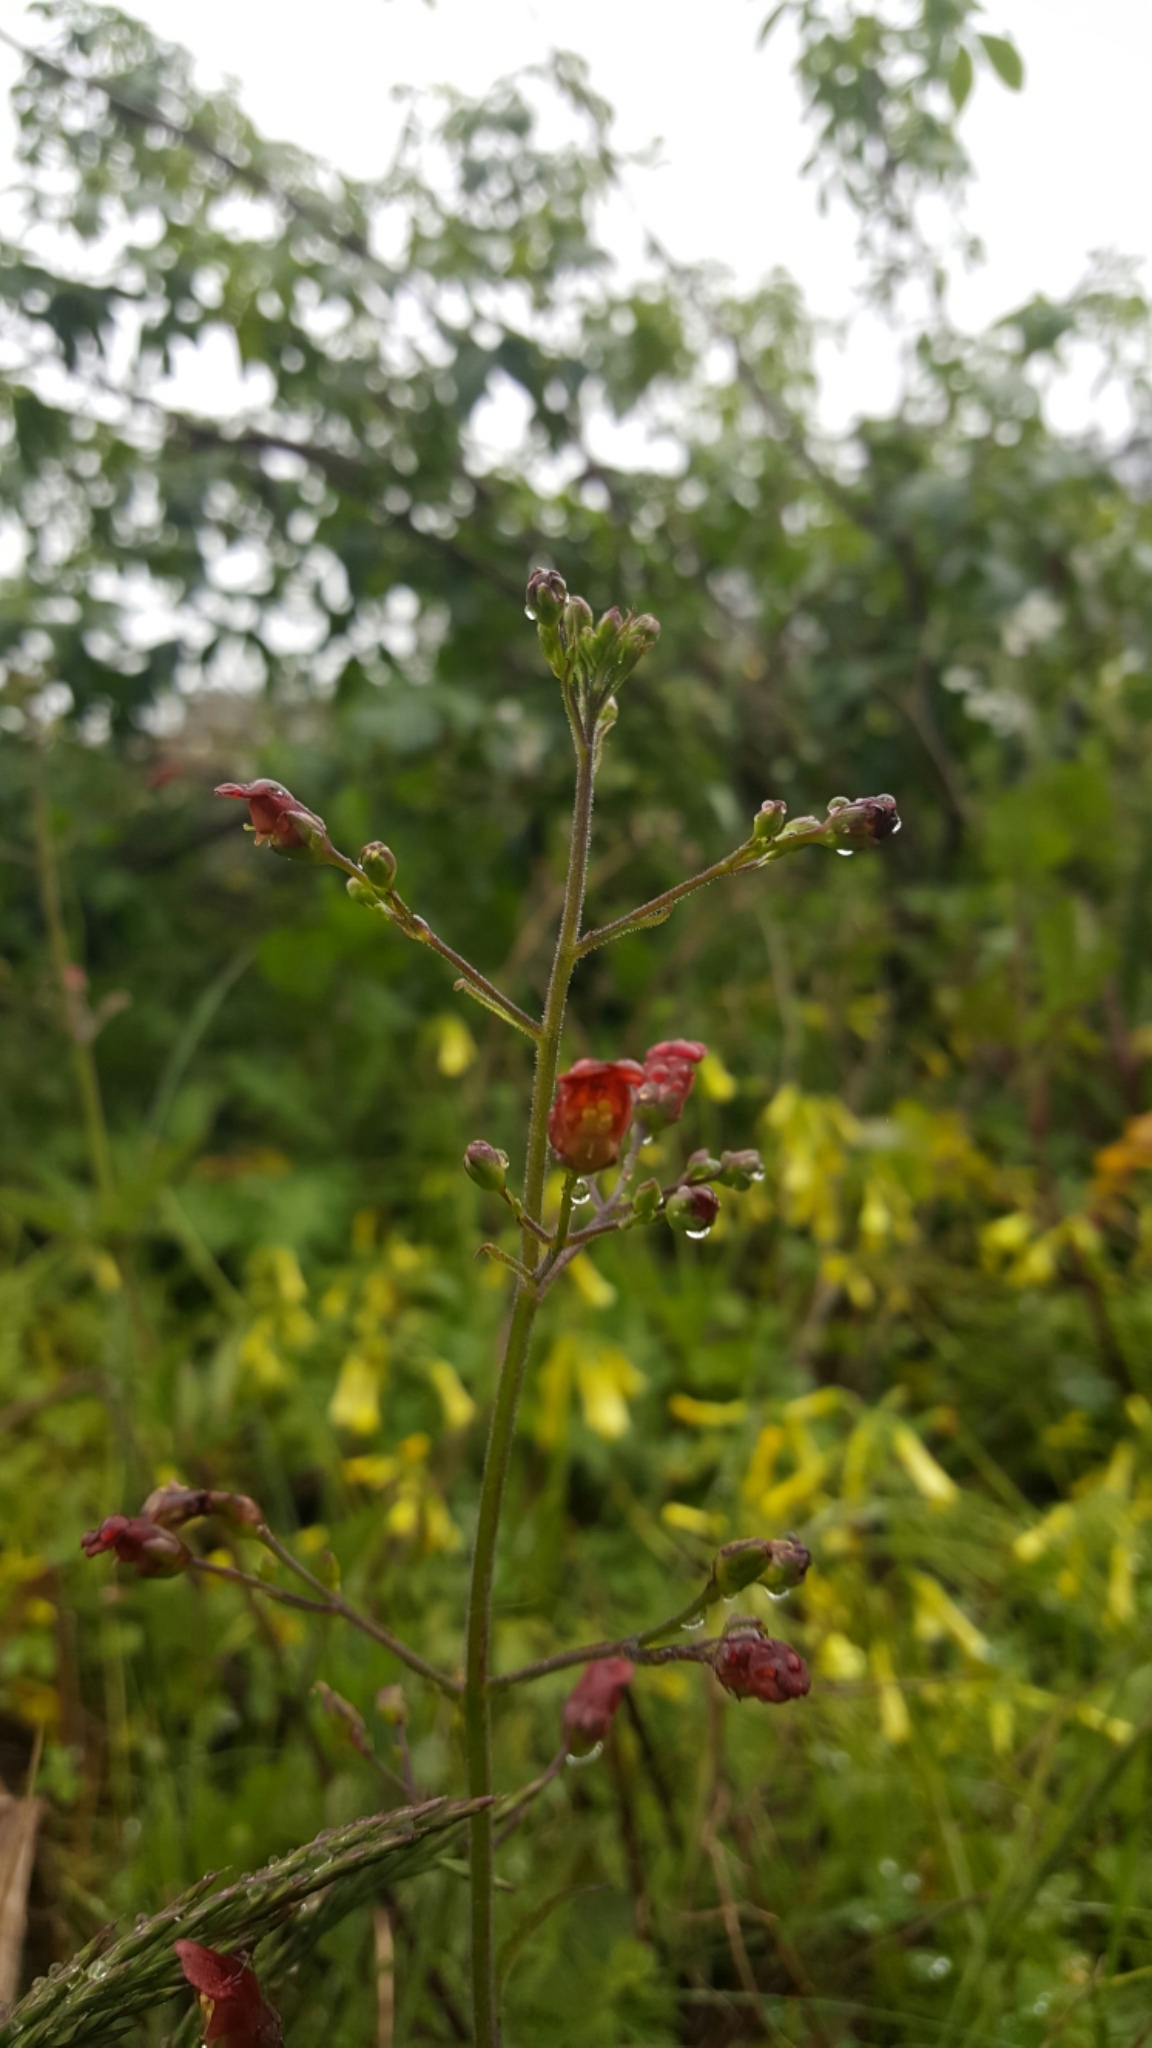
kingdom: Plantae
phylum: Tracheophyta
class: Magnoliopsida
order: Lamiales
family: Scrophulariaceae
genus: Scrophularia
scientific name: Scrophularia californica
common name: California figwort
